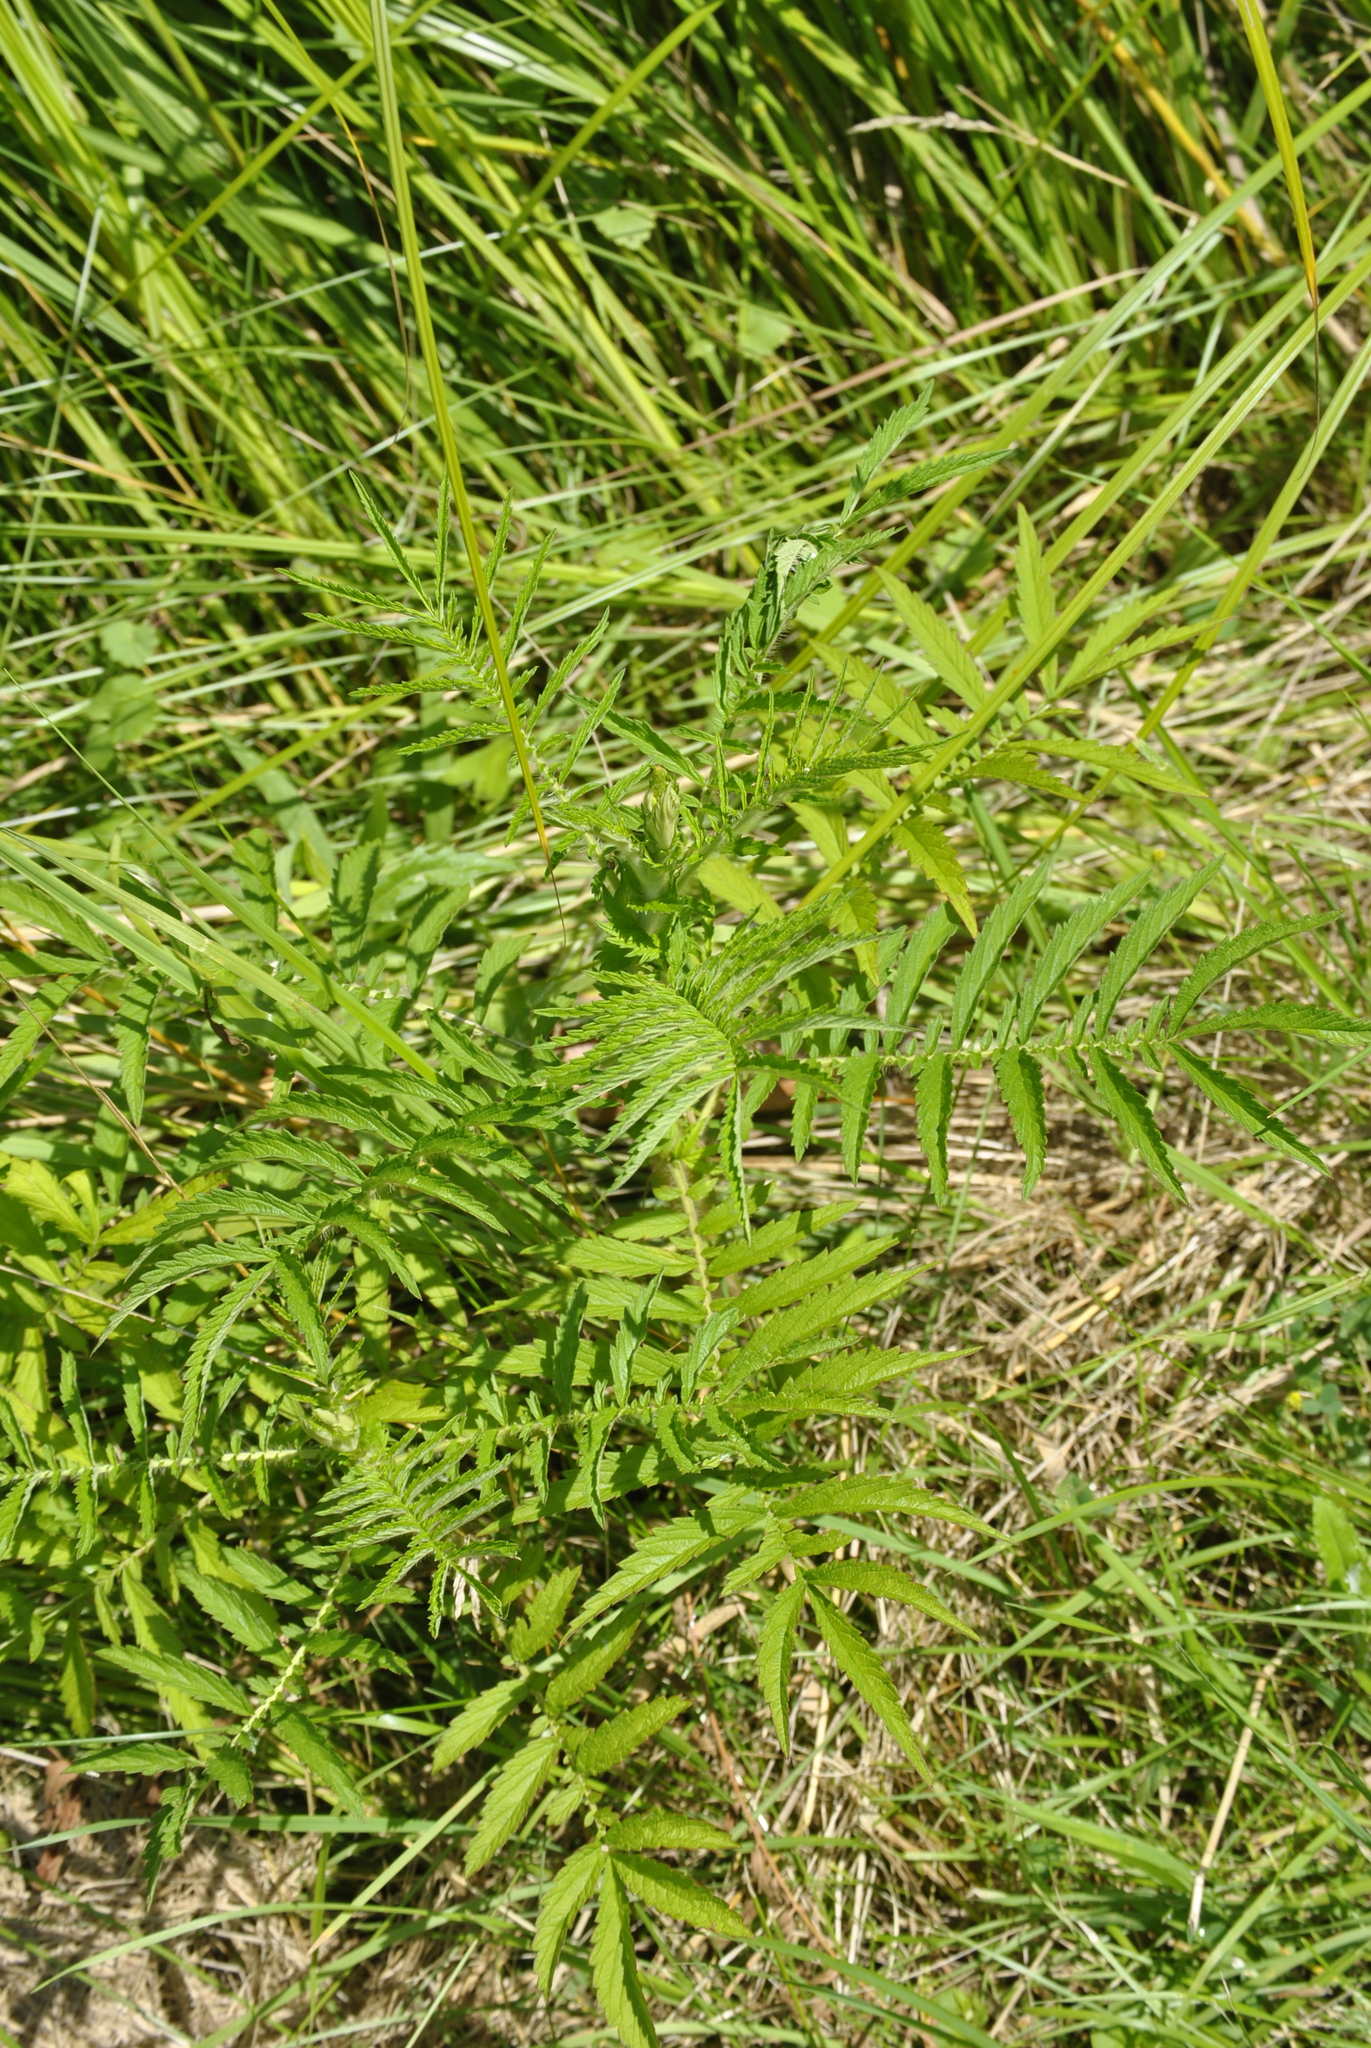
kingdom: Plantae
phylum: Tracheophyta
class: Magnoliopsida
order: Rosales
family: Rosaceae
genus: Agrimonia
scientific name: Agrimonia parviflora
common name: Harvest-lice
